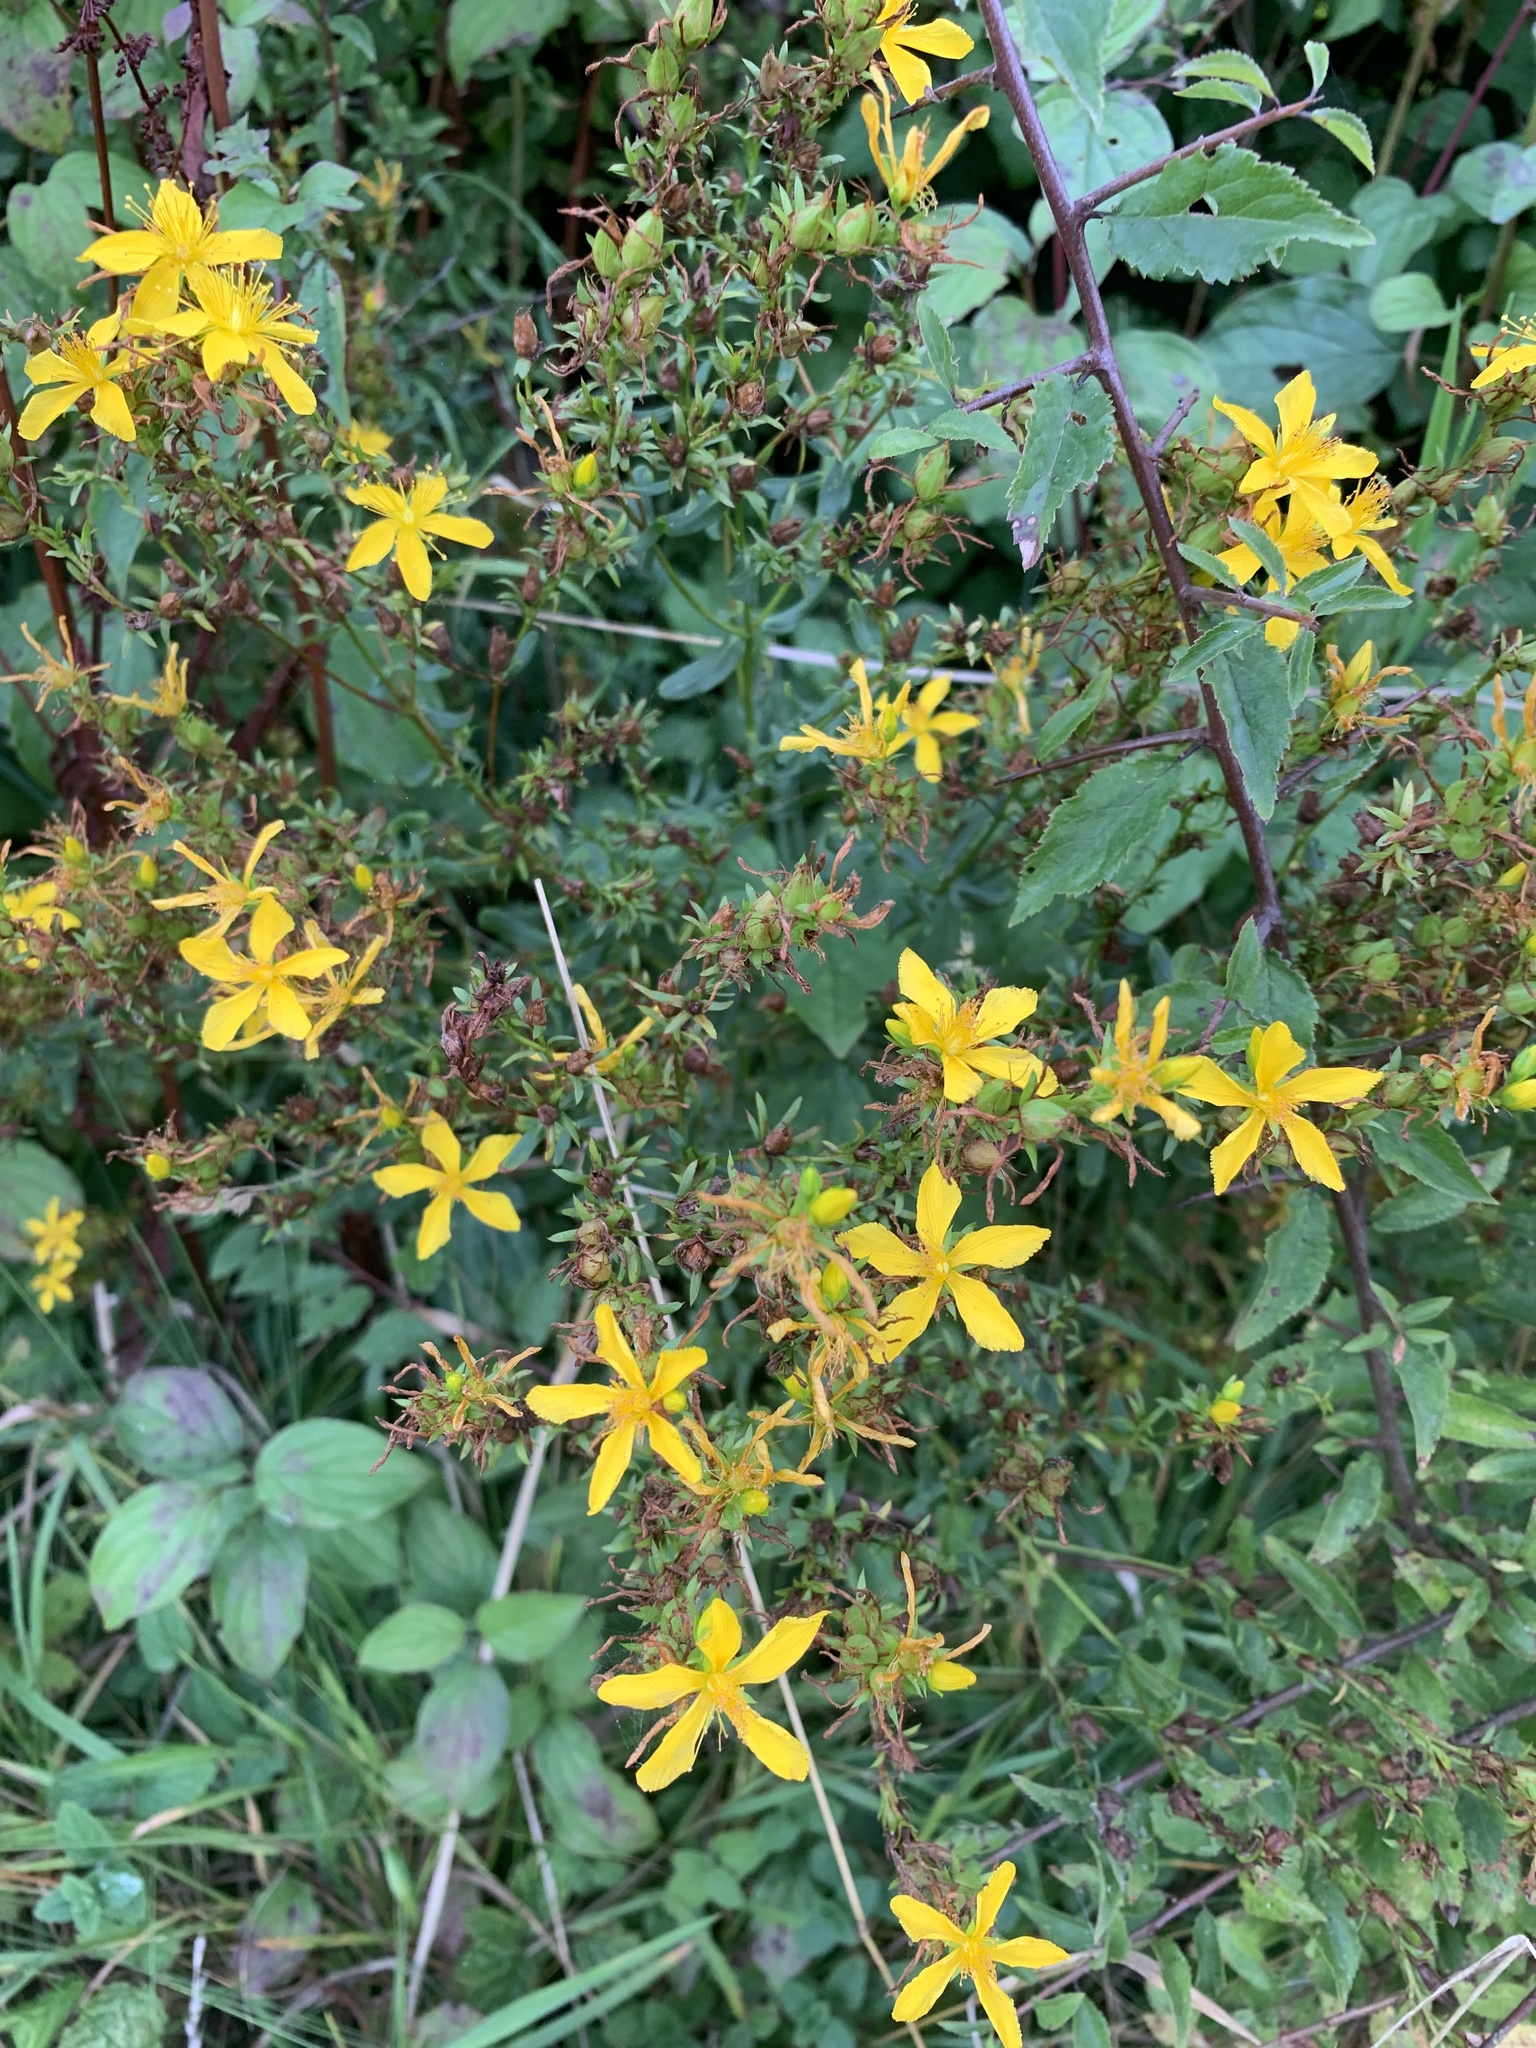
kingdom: Plantae
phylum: Tracheophyta
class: Magnoliopsida
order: Malpighiales
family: Hypericaceae
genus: Hypericum
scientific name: Hypericum perforatum
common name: Common st. johnswort
